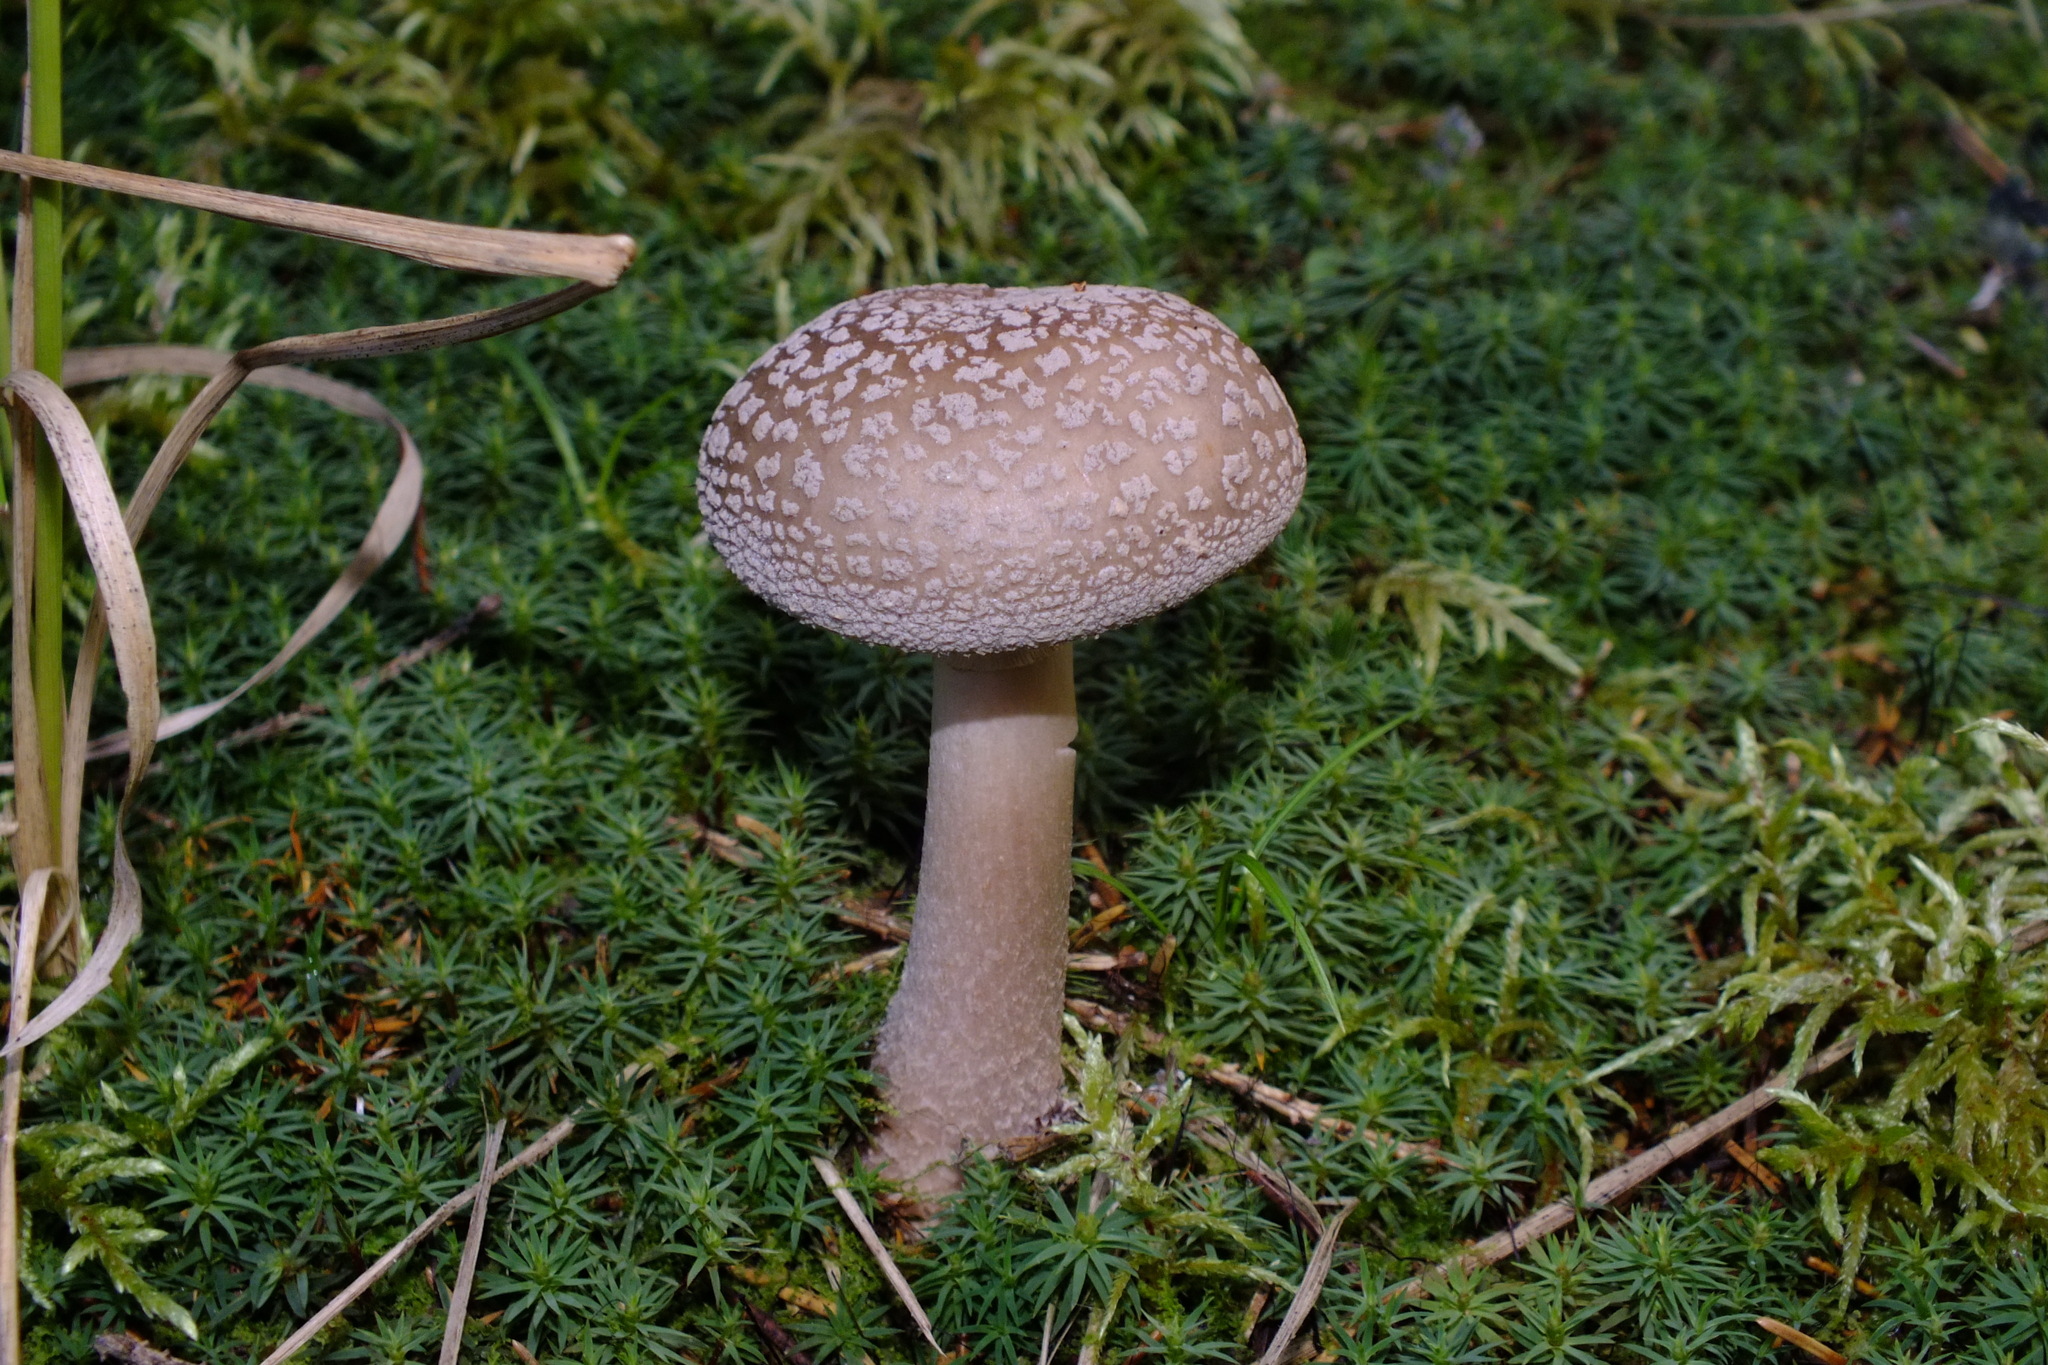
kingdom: Fungi
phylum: Basidiomycota
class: Agaricomycetes
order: Agaricales
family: Amanitaceae
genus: Amanita
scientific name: Amanita rubescens
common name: Blusher
